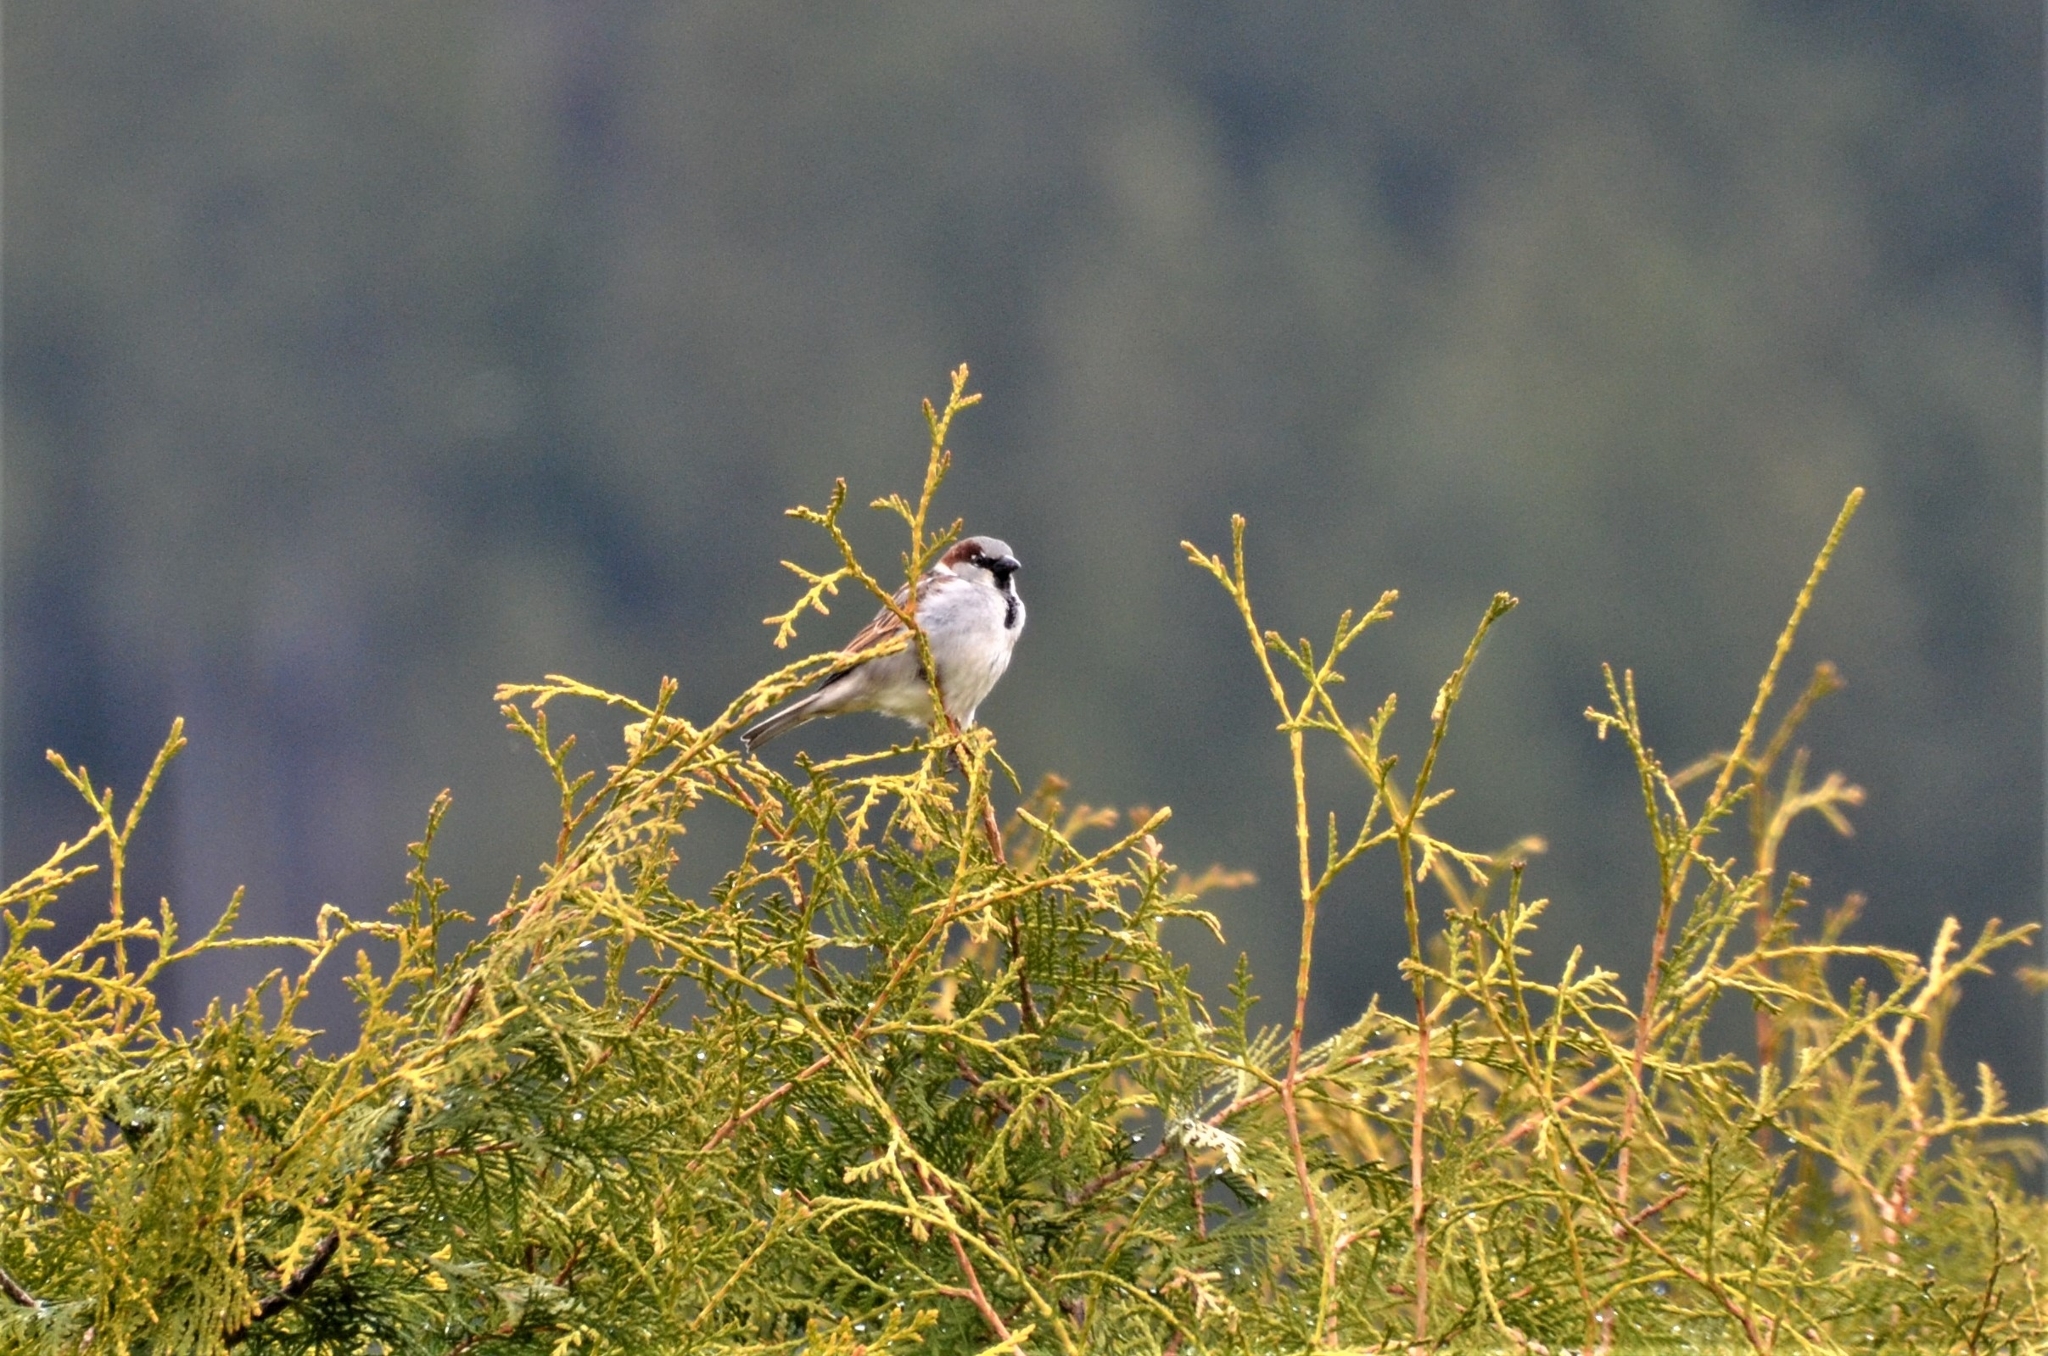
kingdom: Animalia
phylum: Chordata
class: Aves
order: Passeriformes
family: Passeridae
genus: Passer
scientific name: Passer domesticus
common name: House sparrow
